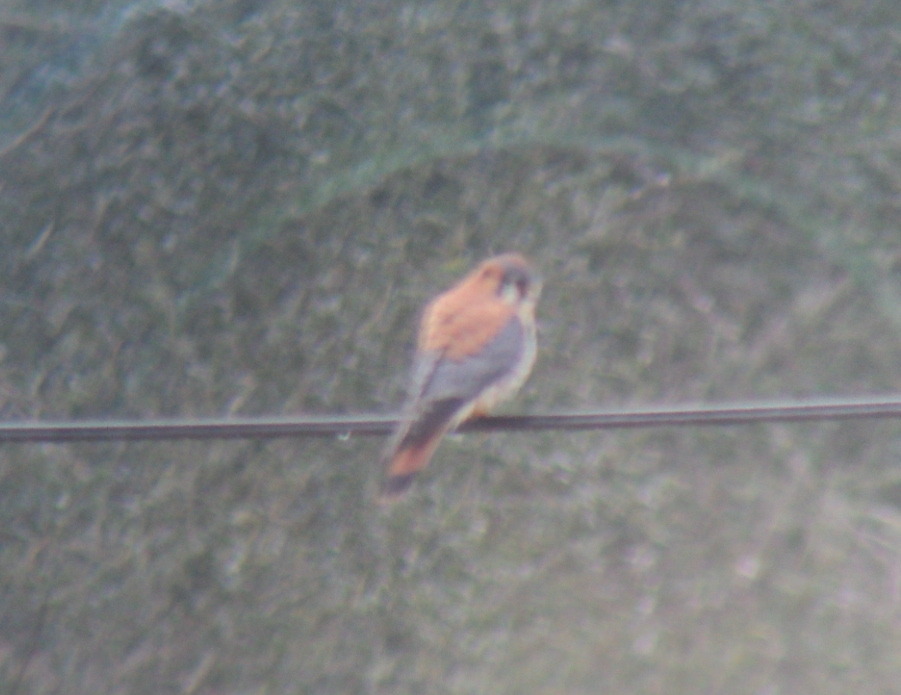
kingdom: Animalia
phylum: Chordata
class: Aves
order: Falconiformes
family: Falconidae
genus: Falco
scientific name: Falco sparverius
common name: American kestrel
